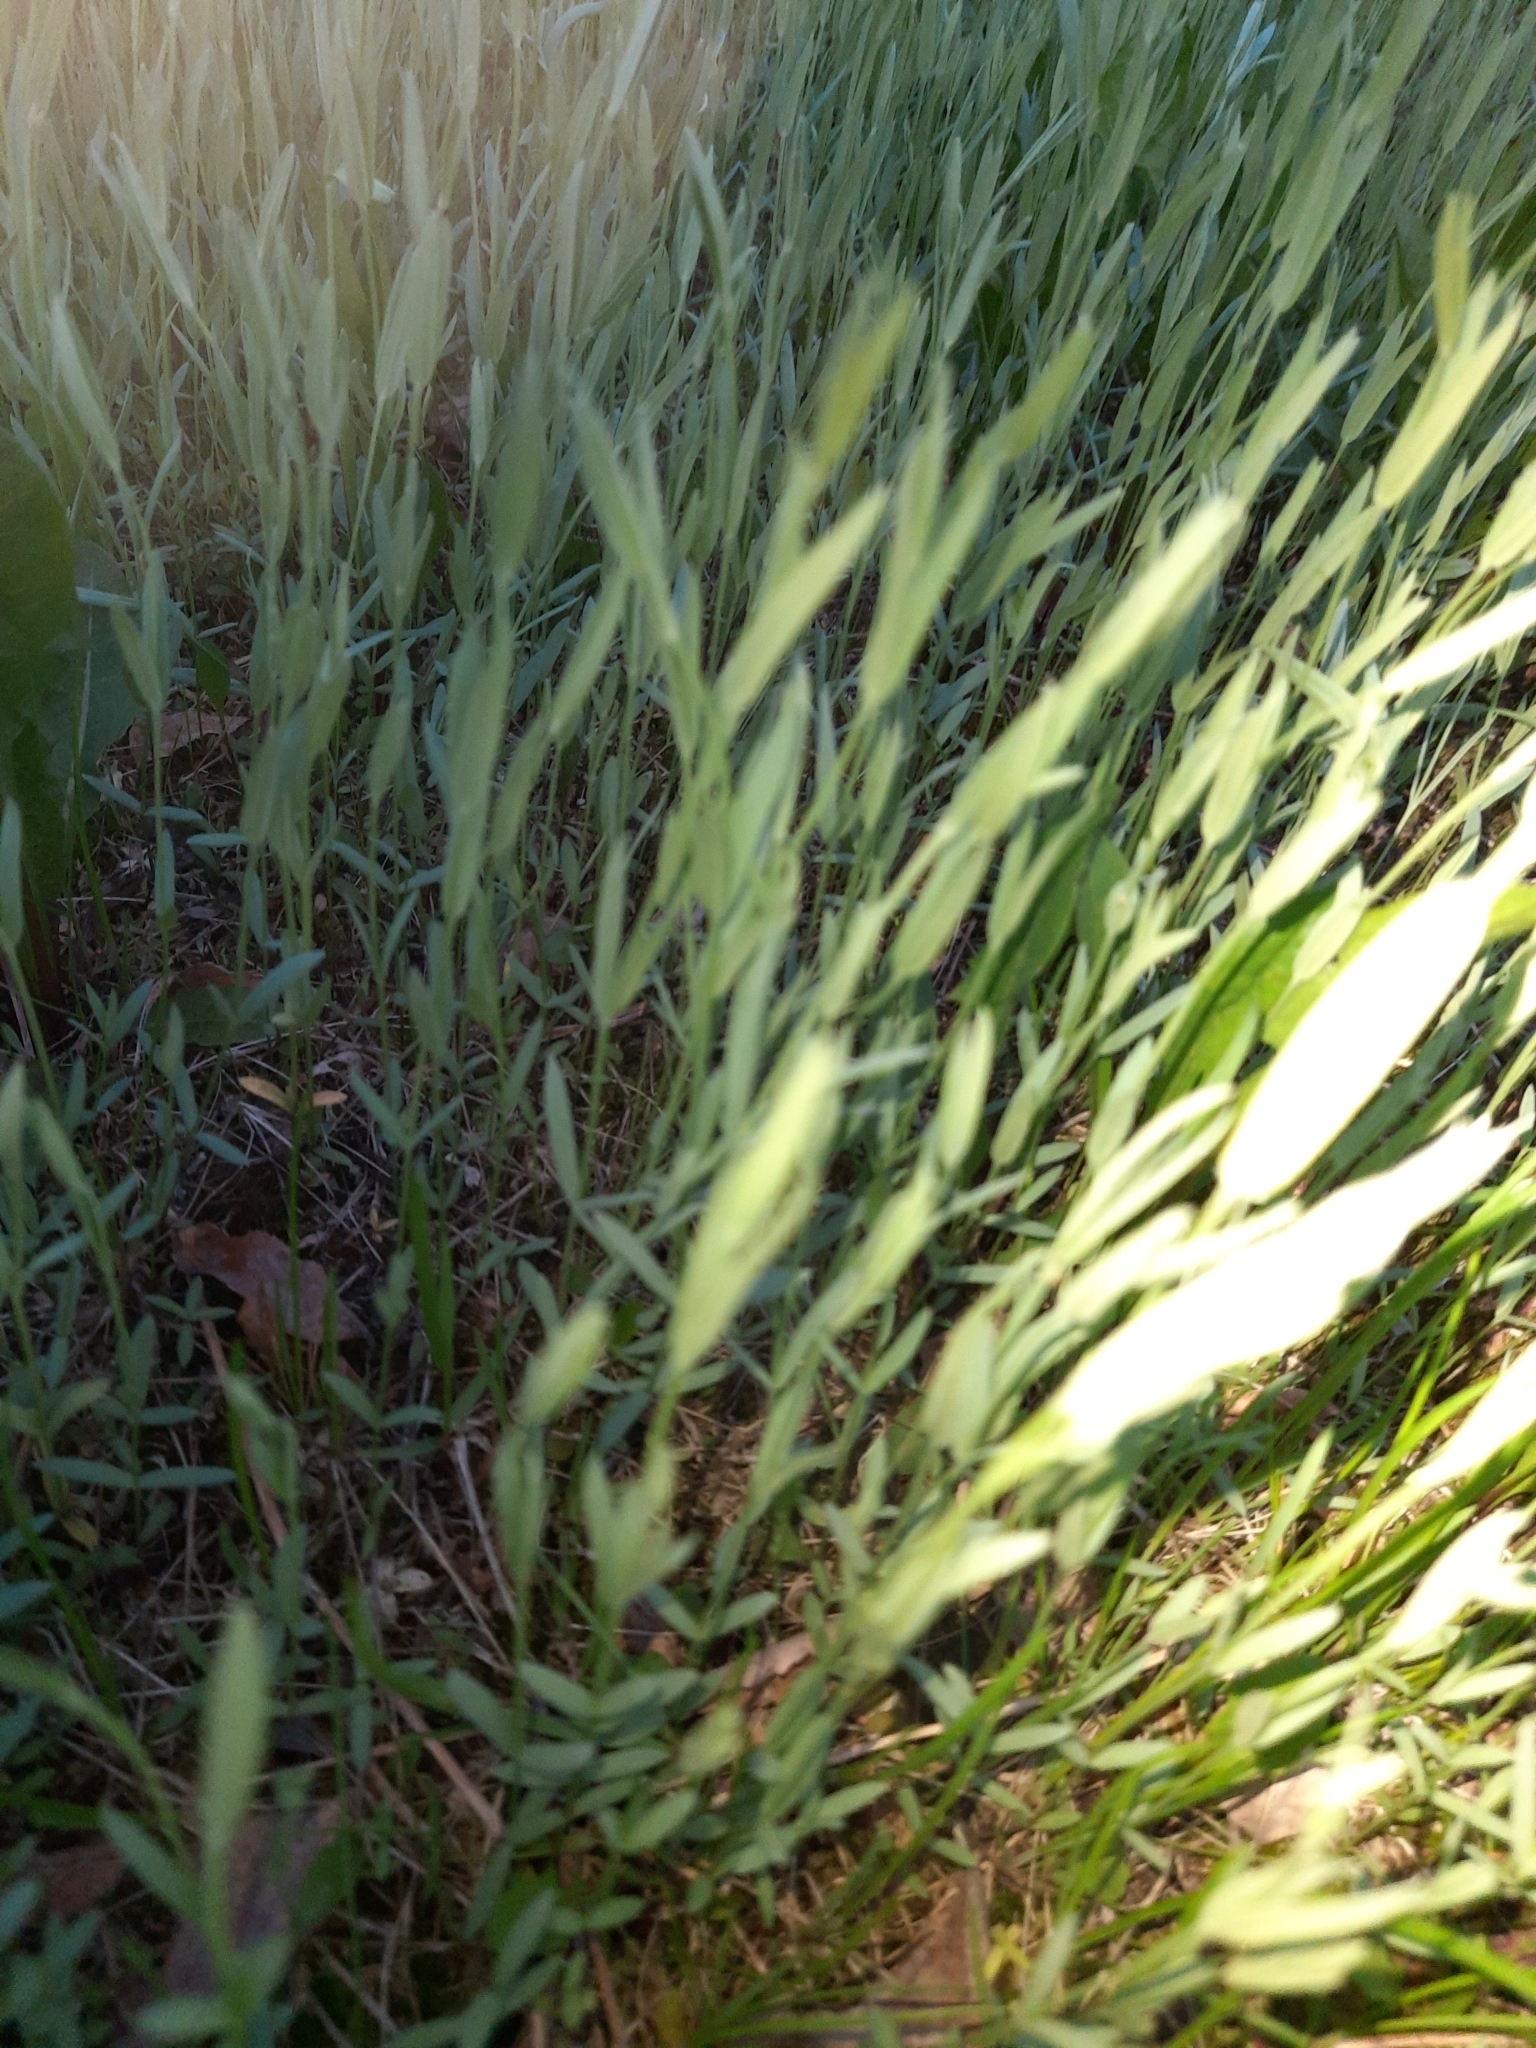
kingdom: Plantae
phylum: Tracheophyta
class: Magnoliopsida
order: Fabales
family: Fabaceae
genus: Lathyrus
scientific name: Lathyrus pratensis
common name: Meadow vetchling
